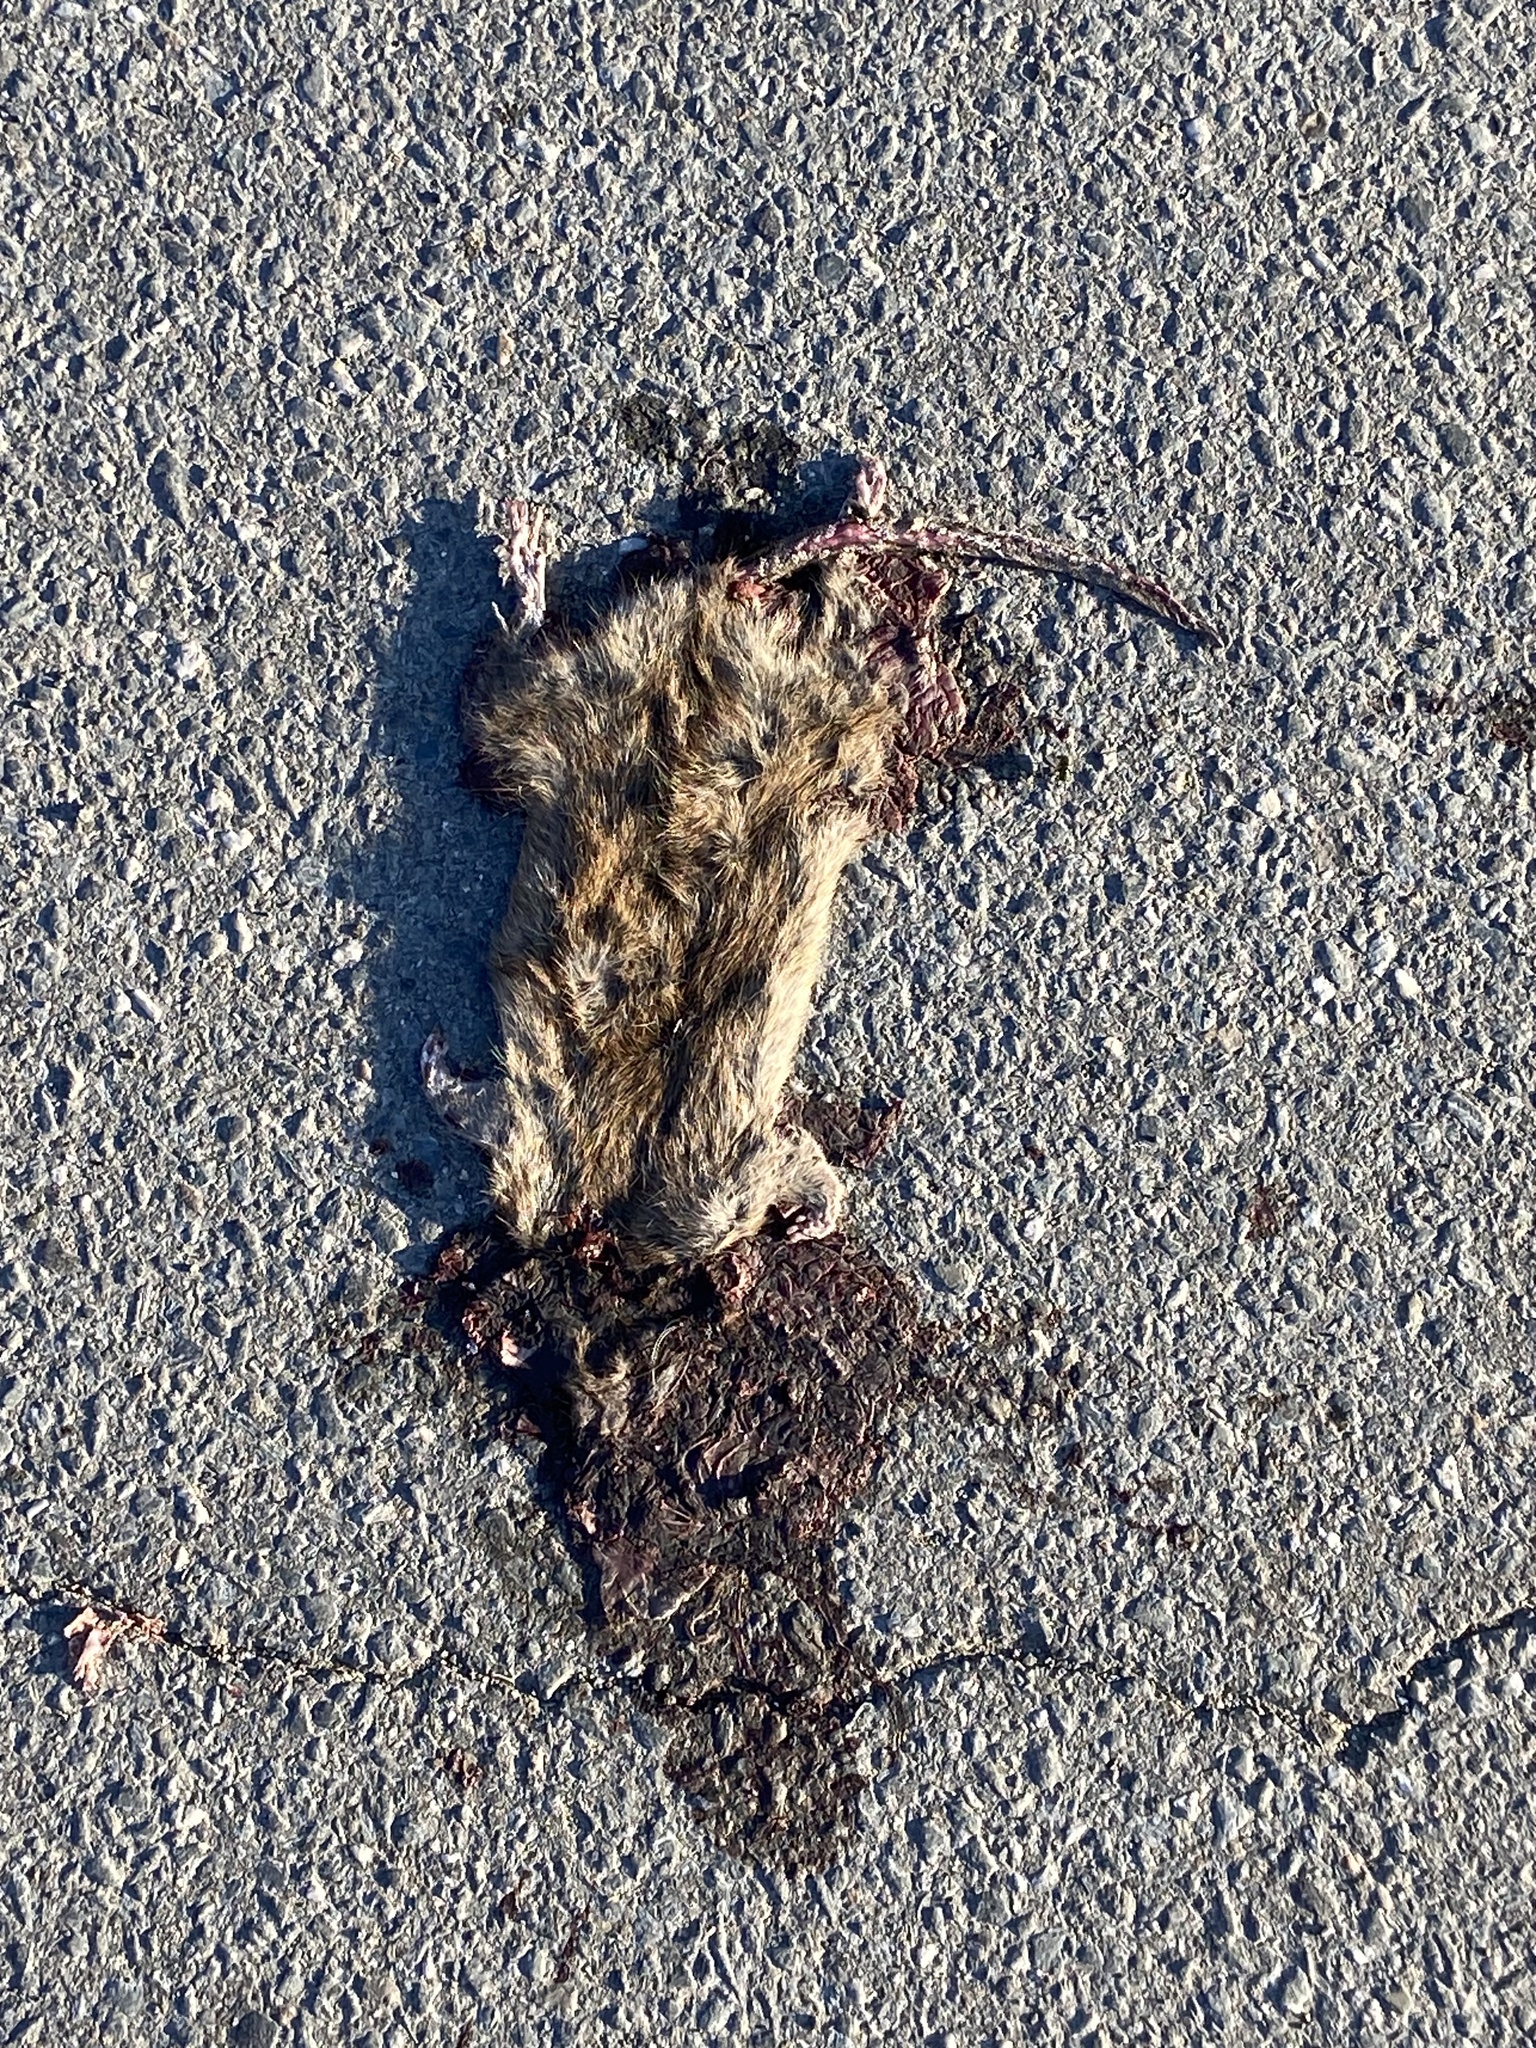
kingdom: Animalia
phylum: Chordata
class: Mammalia
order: Rodentia
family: Muridae
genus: Rattus
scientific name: Rattus norvegicus
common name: Brown rat
